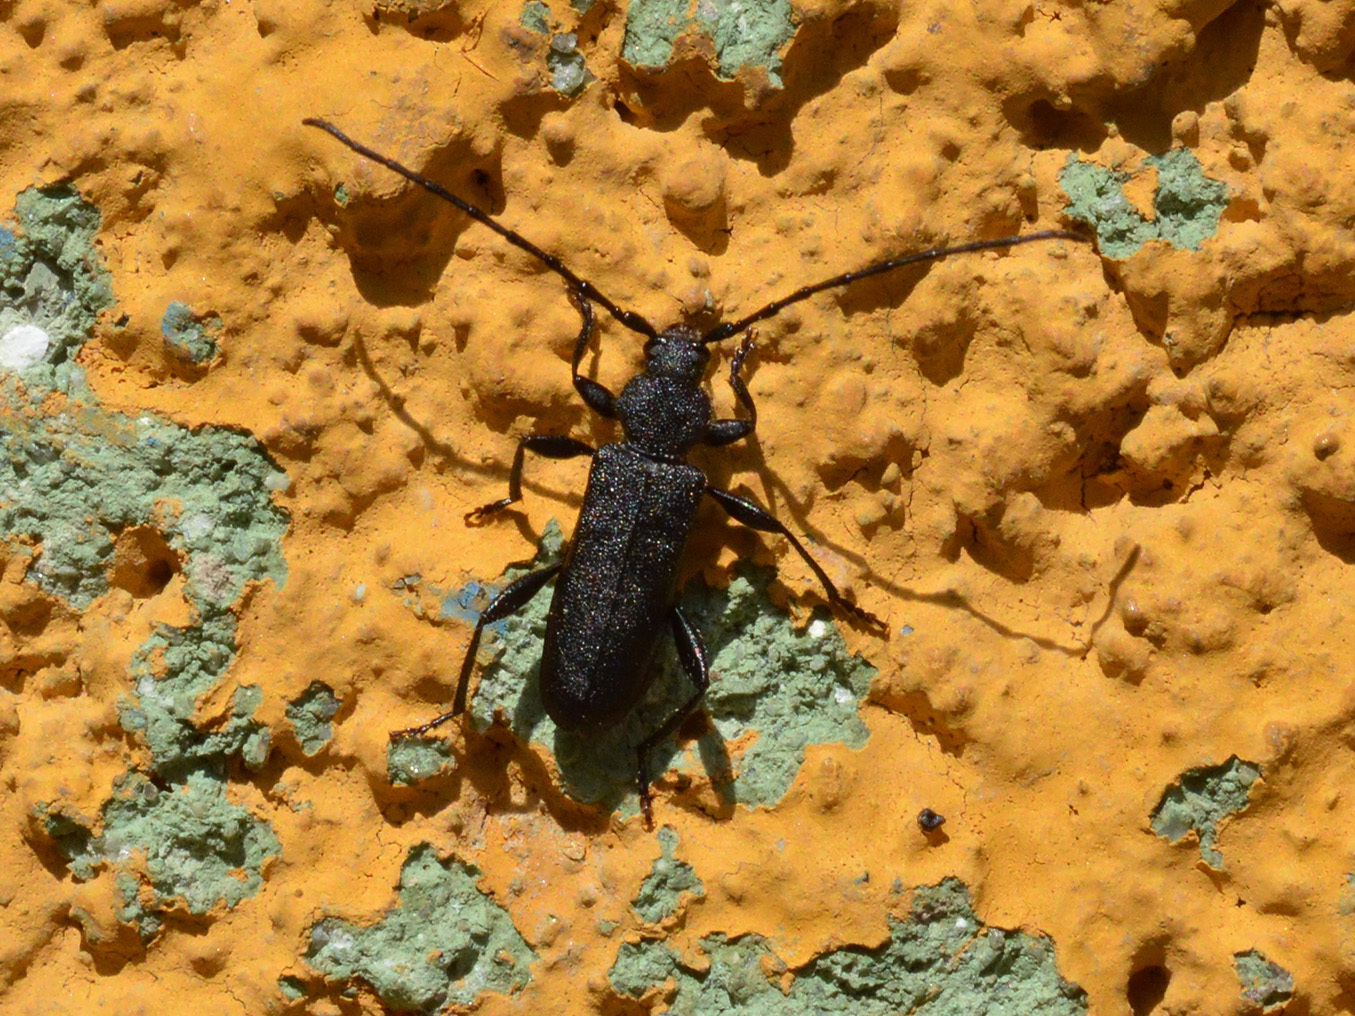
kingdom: Animalia
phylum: Arthropoda
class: Insecta
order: Coleoptera
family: Cerambycidae
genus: Ropalopus
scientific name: Ropalopus macropus
